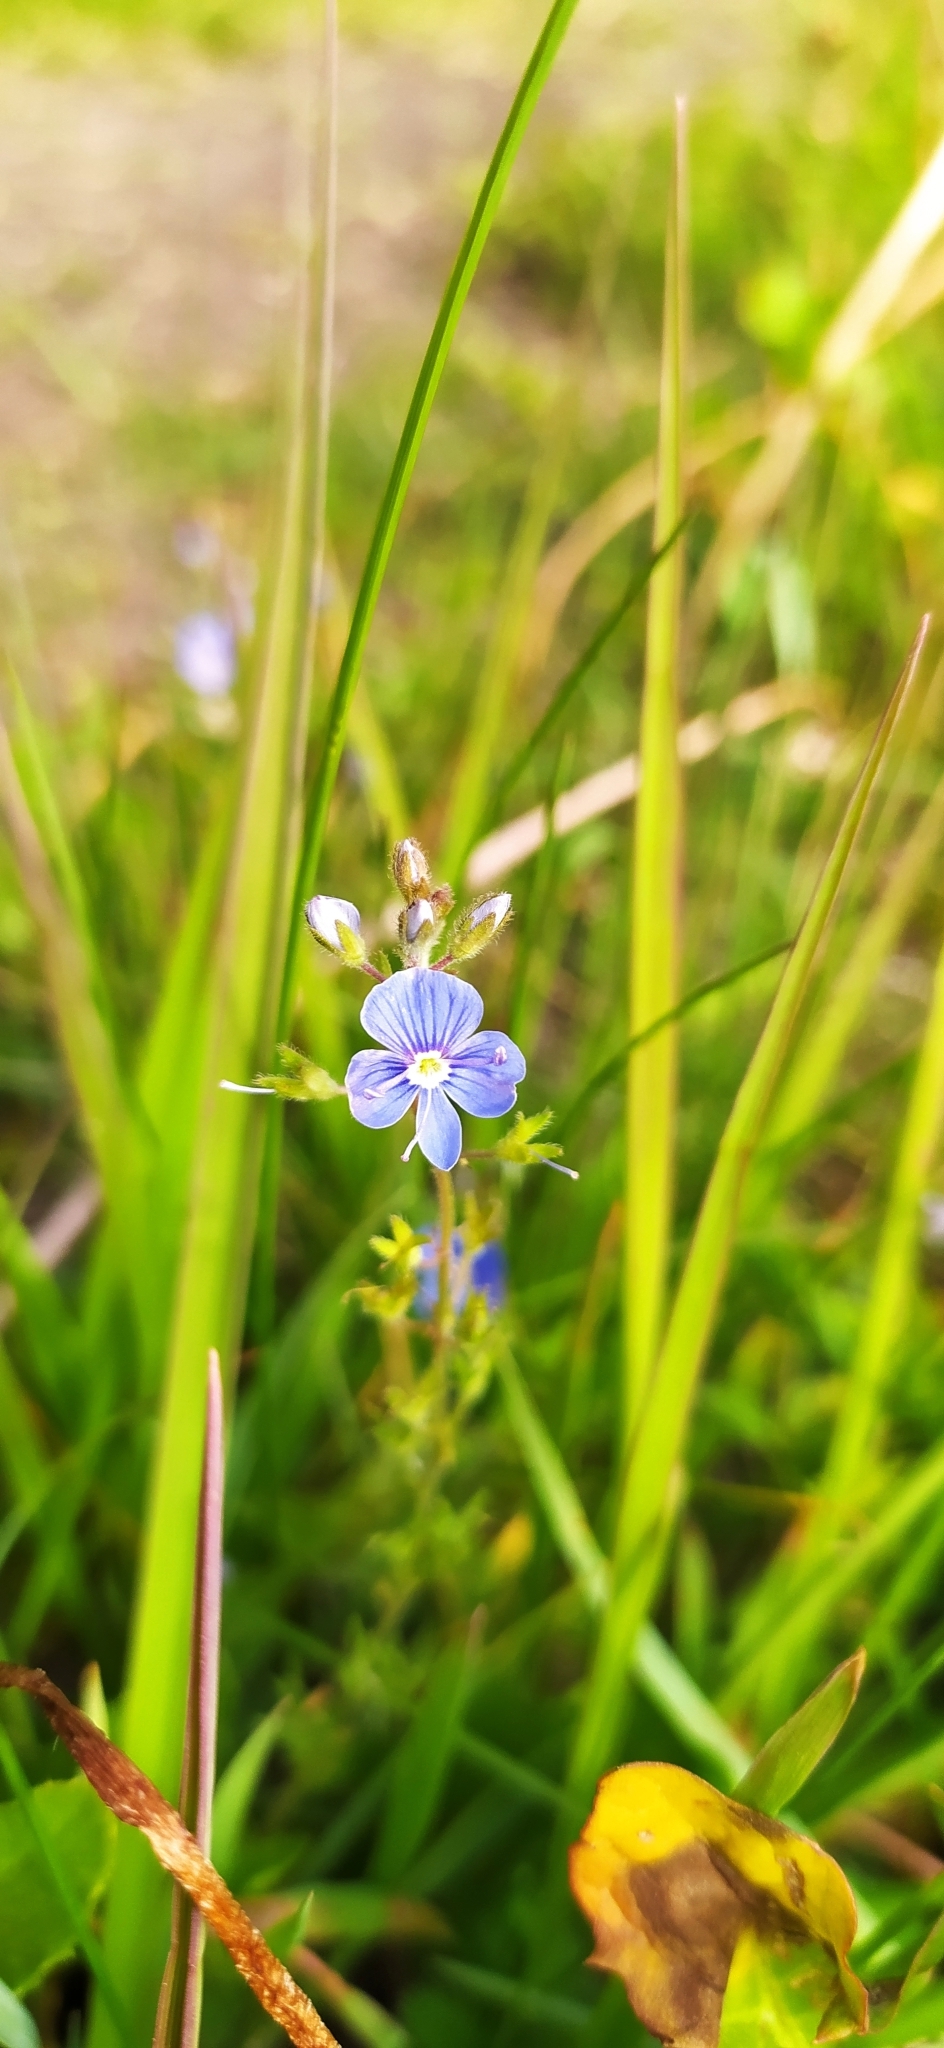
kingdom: Plantae
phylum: Tracheophyta
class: Magnoliopsida
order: Lamiales
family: Plantaginaceae
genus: Veronica
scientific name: Veronica chamaedrys
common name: Germander speedwell
